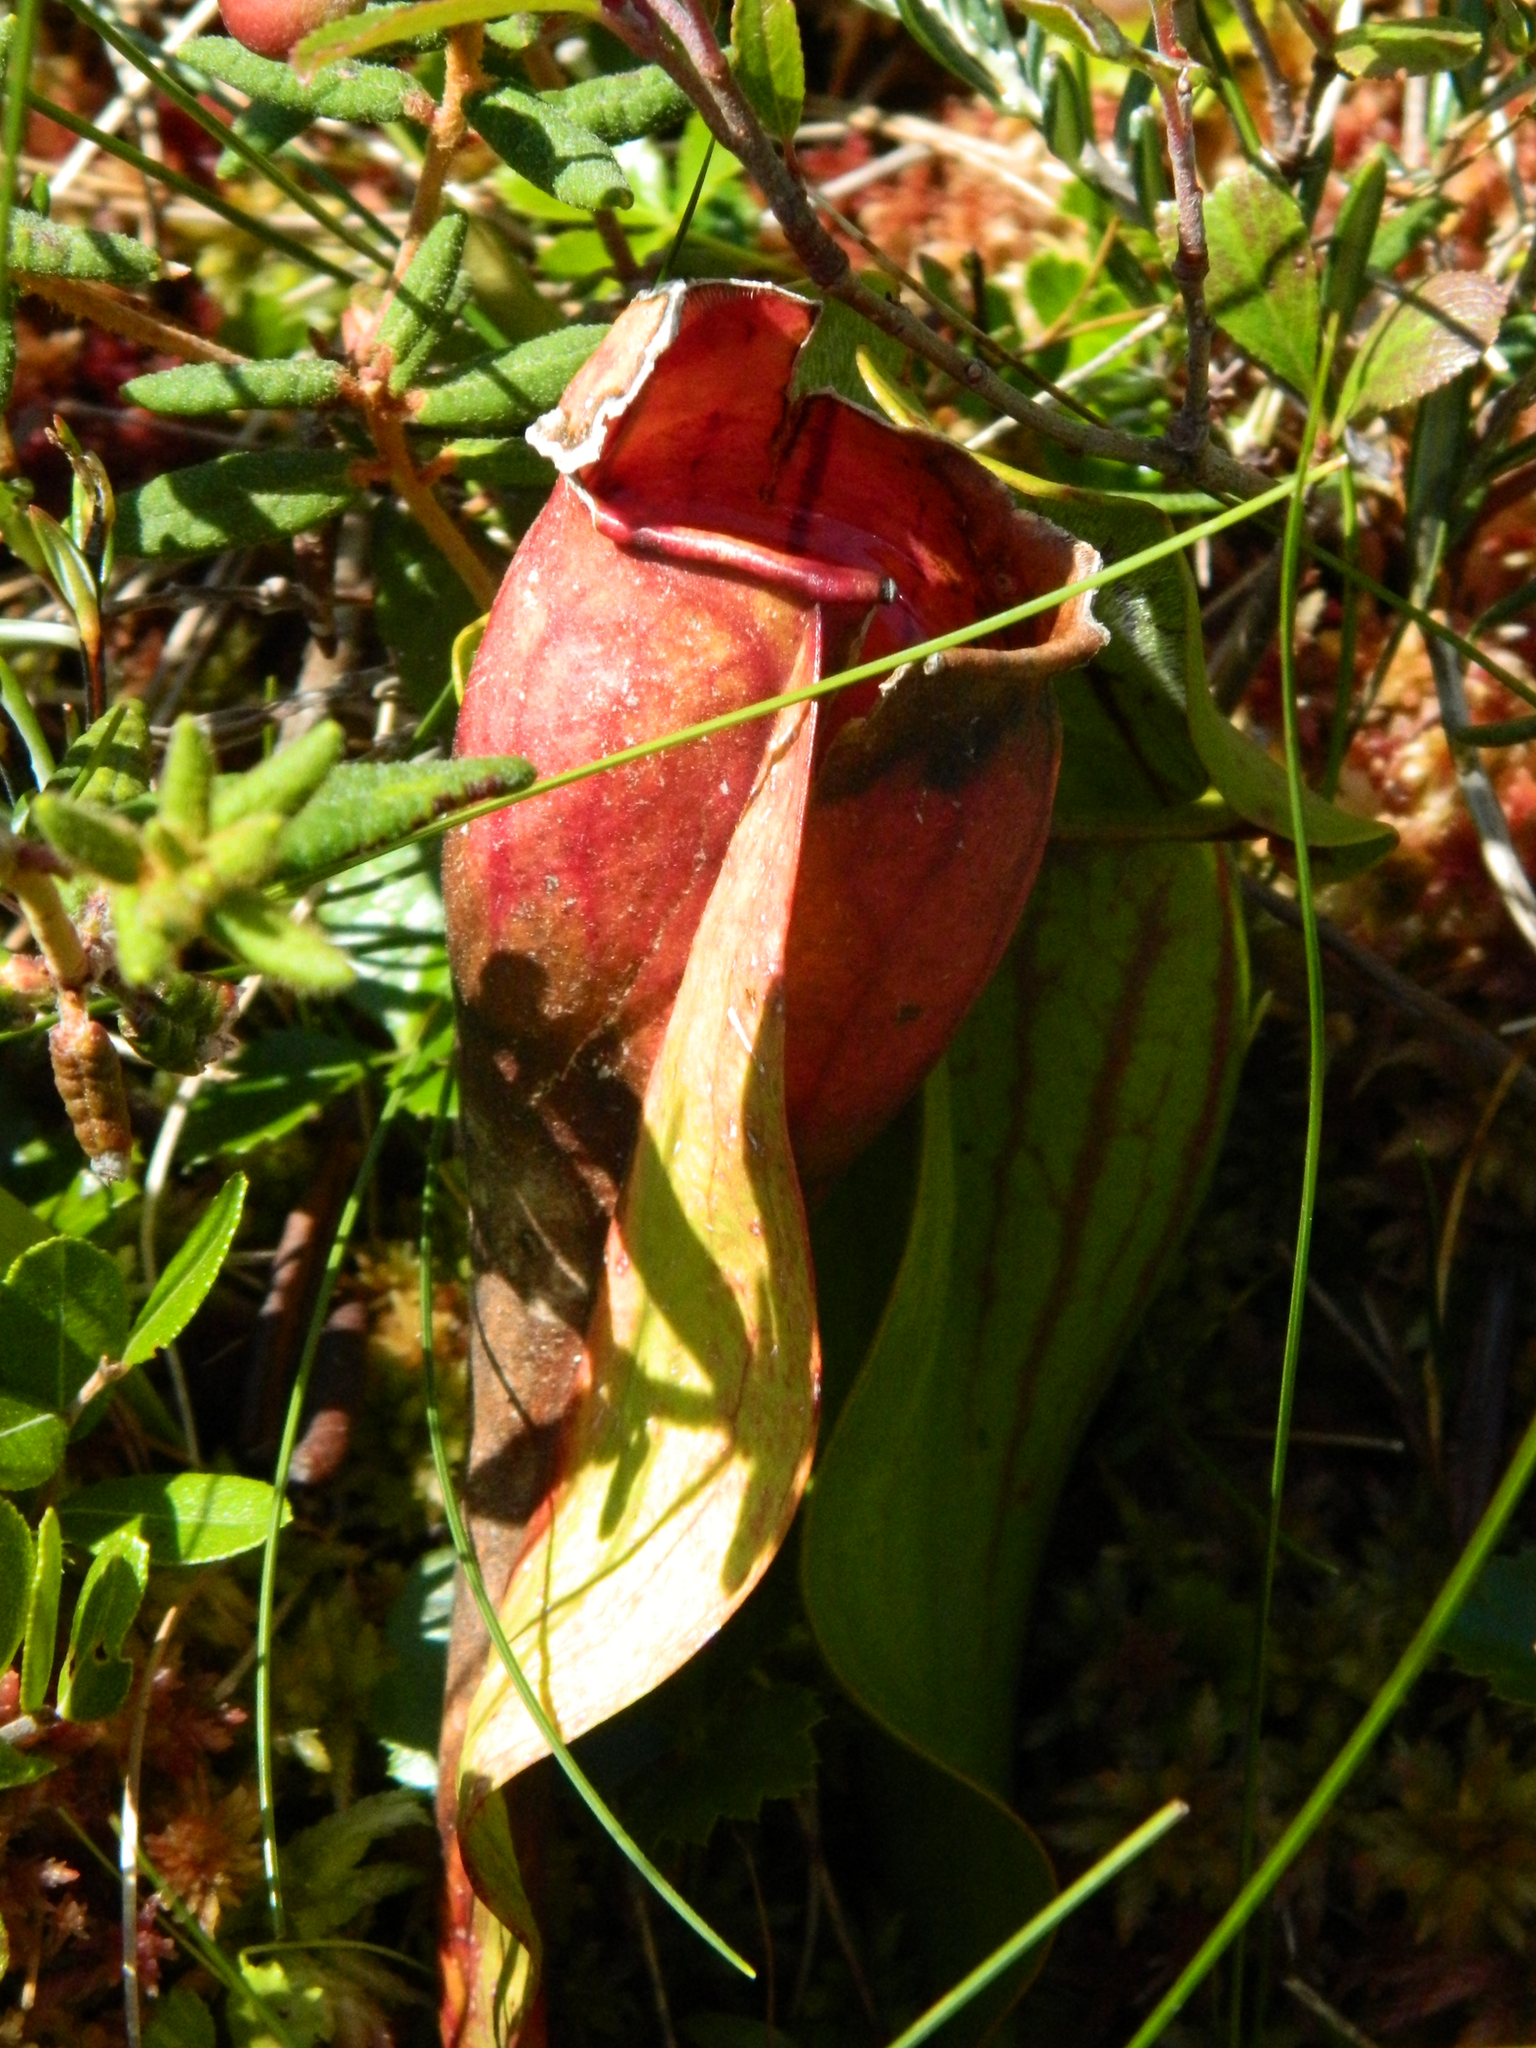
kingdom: Plantae
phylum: Tracheophyta
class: Magnoliopsida
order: Ericales
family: Sarraceniaceae
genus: Sarracenia
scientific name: Sarracenia purpurea
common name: Pitcherplant
